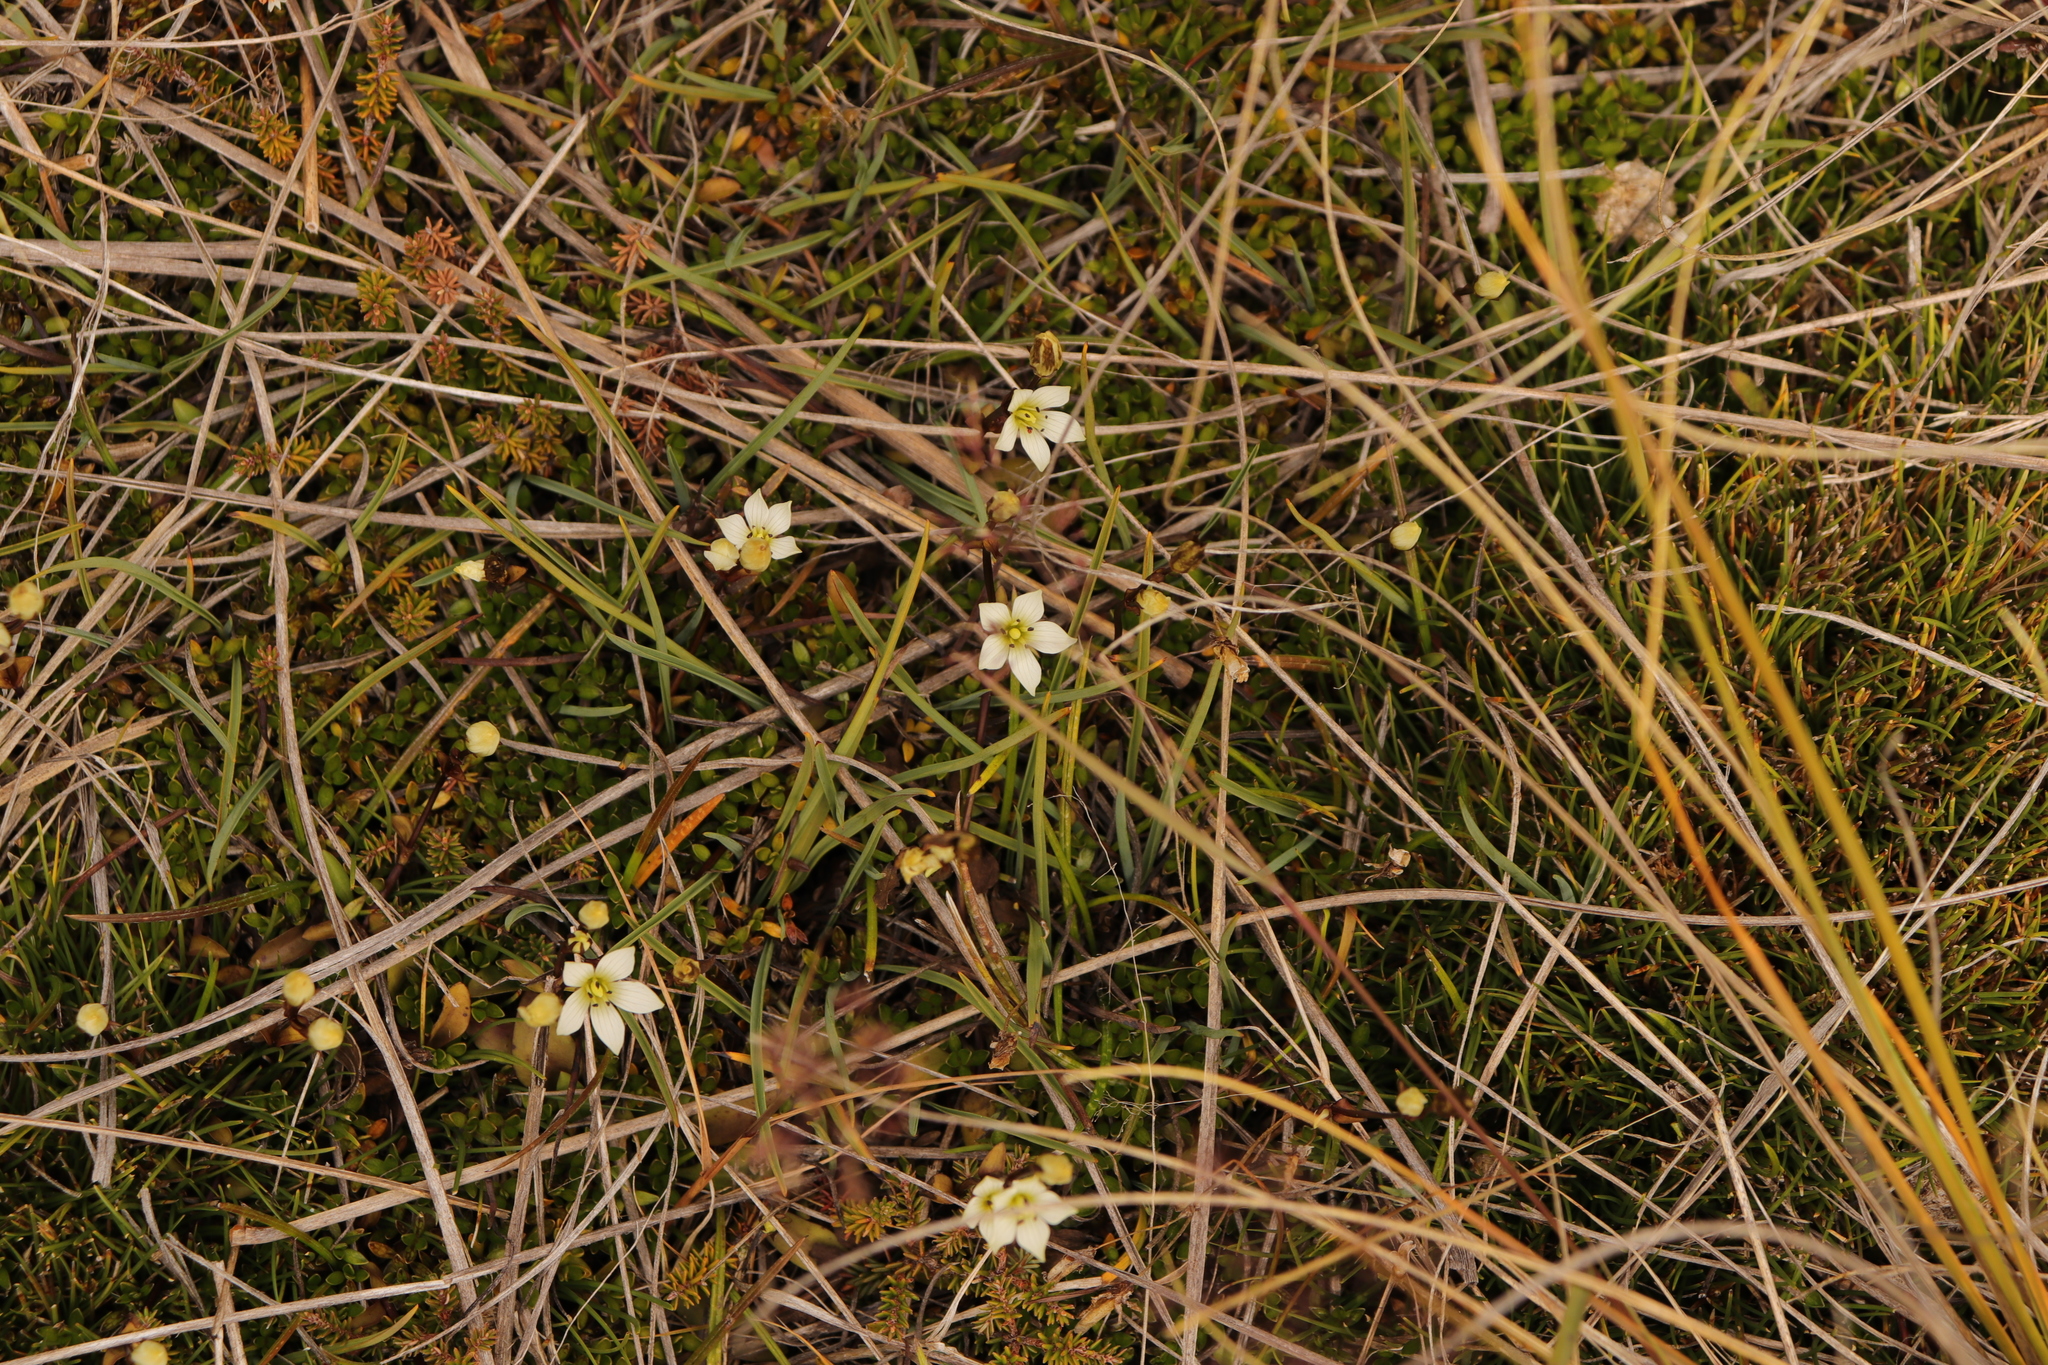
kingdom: Plantae
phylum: Tracheophyta
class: Magnoliopsida
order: Gentianales
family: Gentianaceae
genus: Gentianella
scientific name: Gentianella grisebachii
